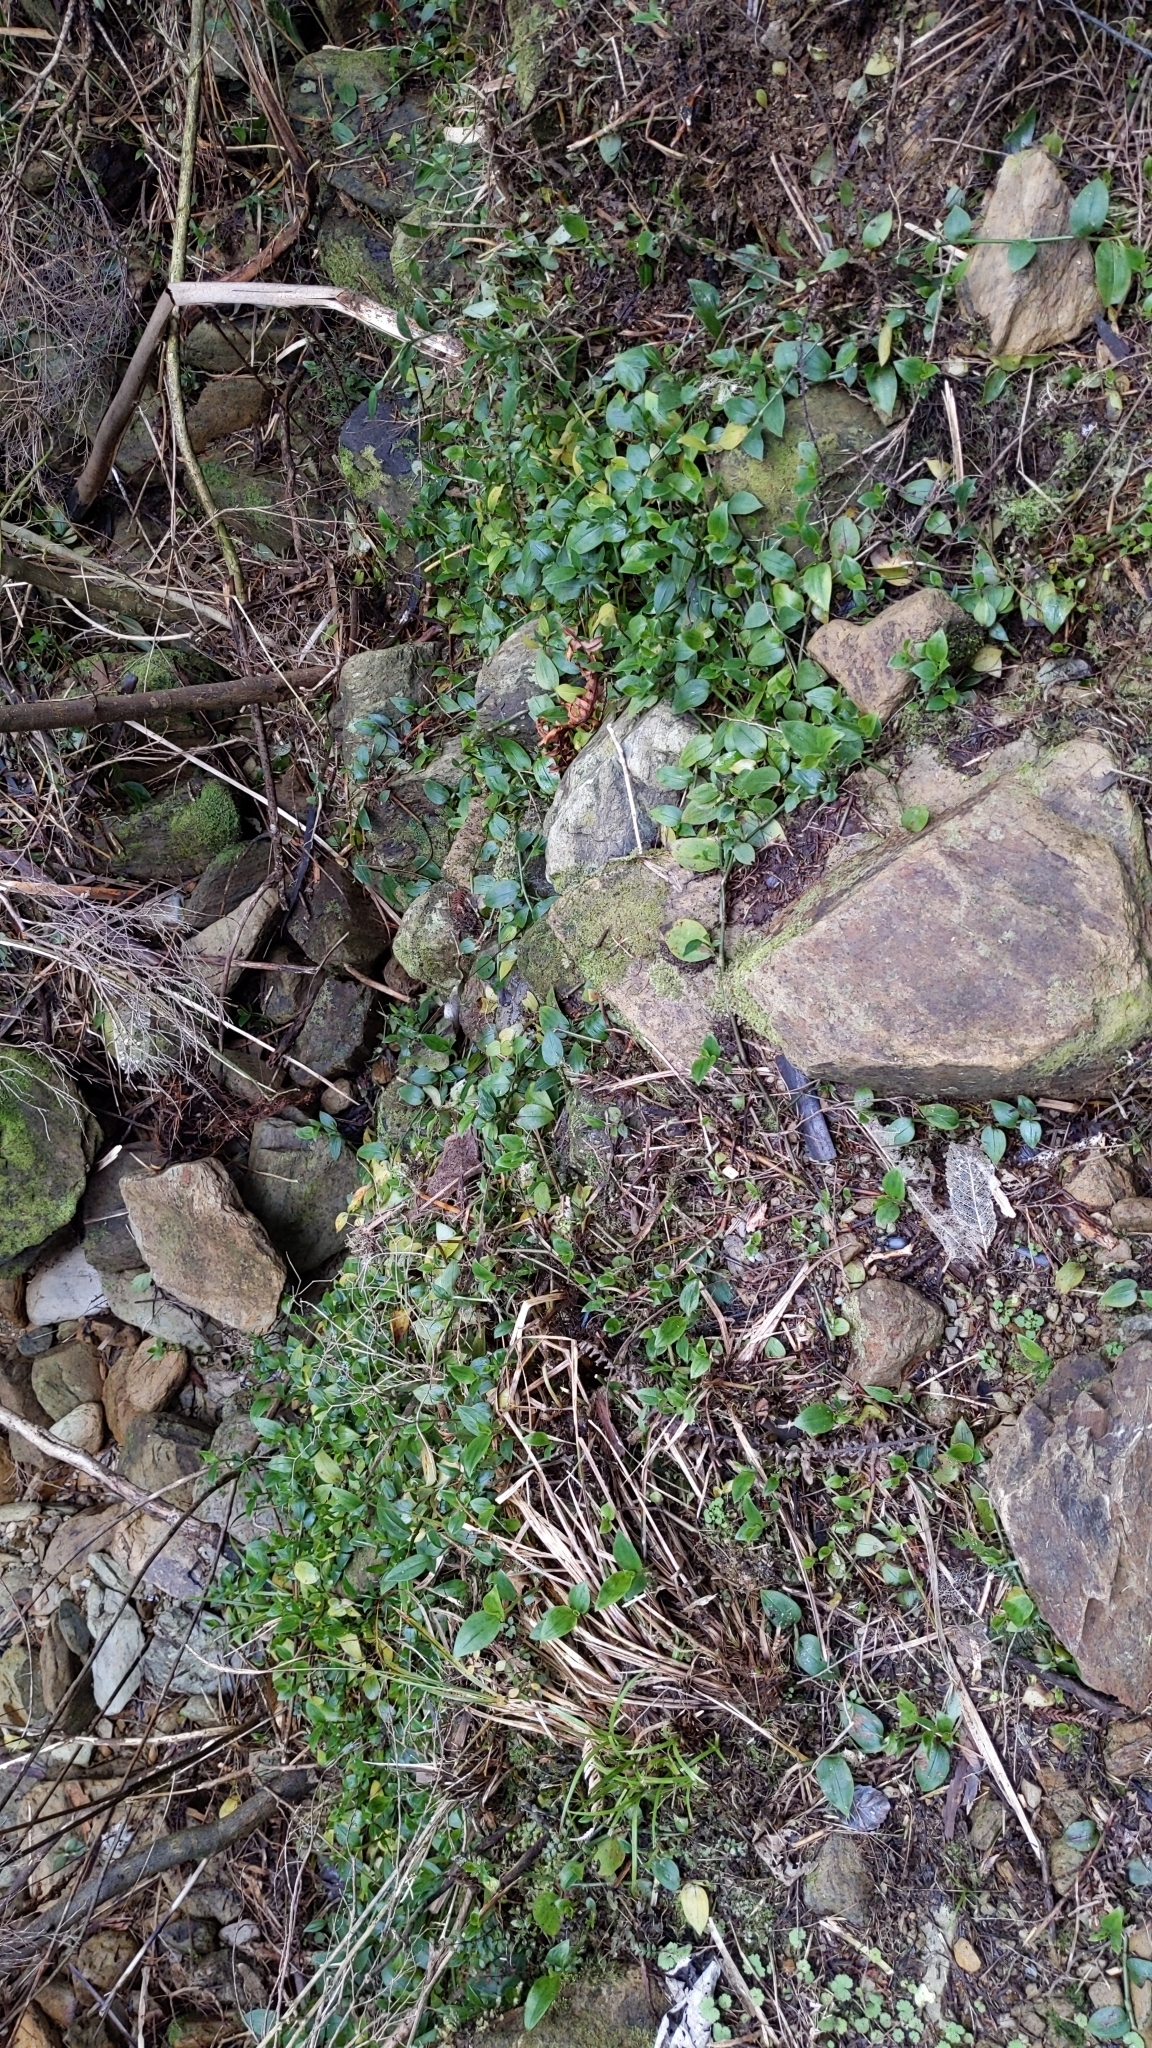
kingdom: Plantae
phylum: Tracheophyta
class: Liliopsida
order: Commelinales
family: Commelinaceae
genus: Tradescantia
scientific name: Tradescantia fluminensis
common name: Wandering-jew
